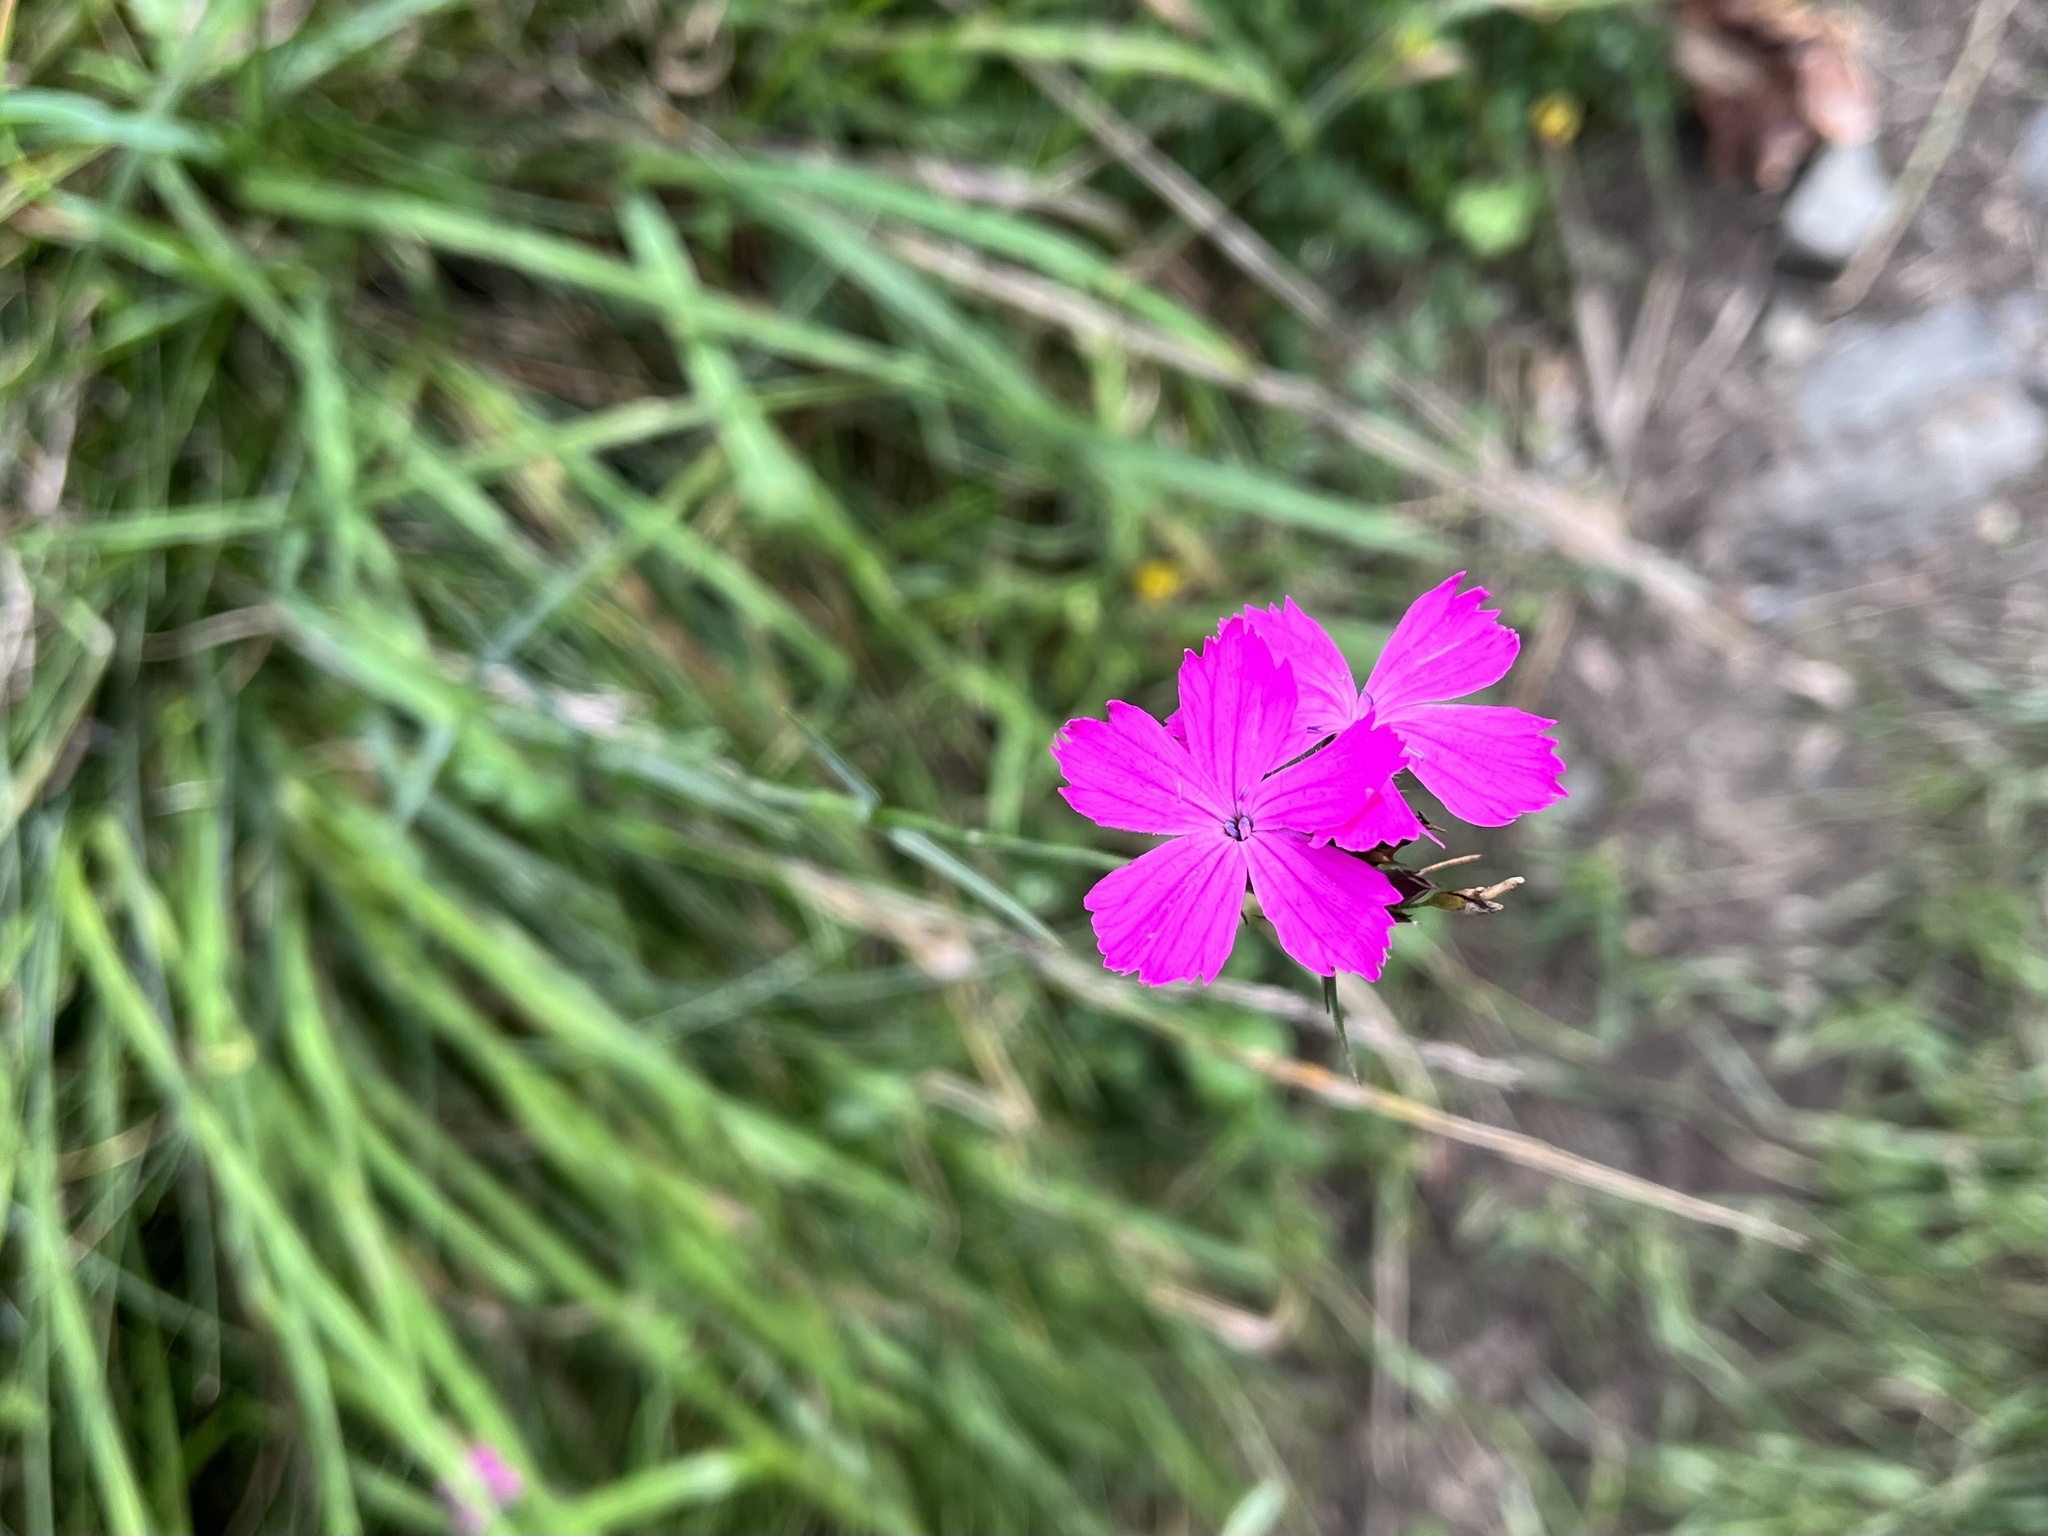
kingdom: Plantae
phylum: Tracheophyta
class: Magnoliopsida
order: Caryophyllales
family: Caryophyllaceae
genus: Dianthus
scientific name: Dianthus carthusianorum
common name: Carthusian pink
